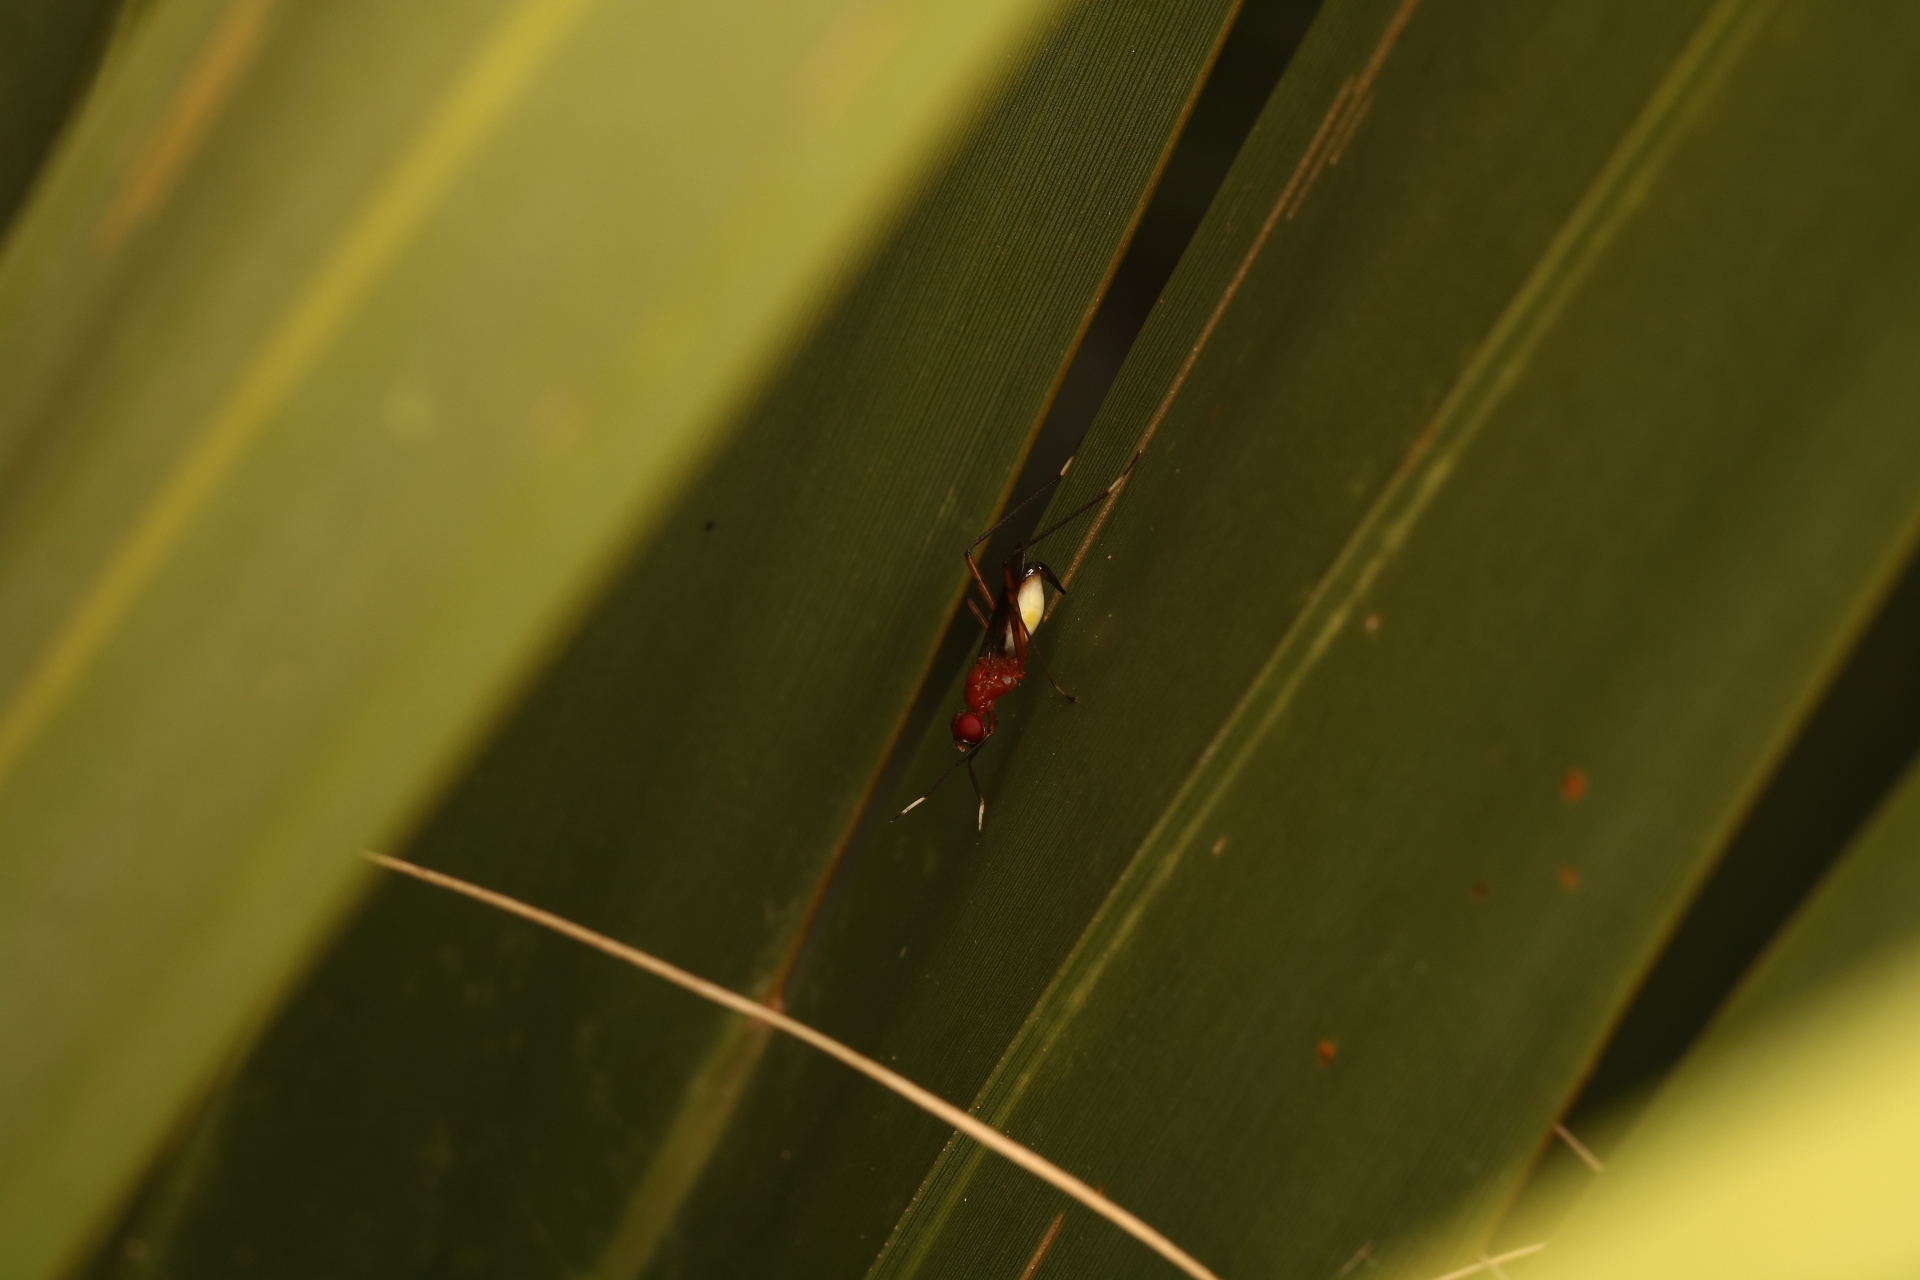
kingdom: Animalia
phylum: Arthropoda
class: Insecta
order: Diptera
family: Micropezidae
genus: Grallipeza
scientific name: Grallipeza nebulosa
